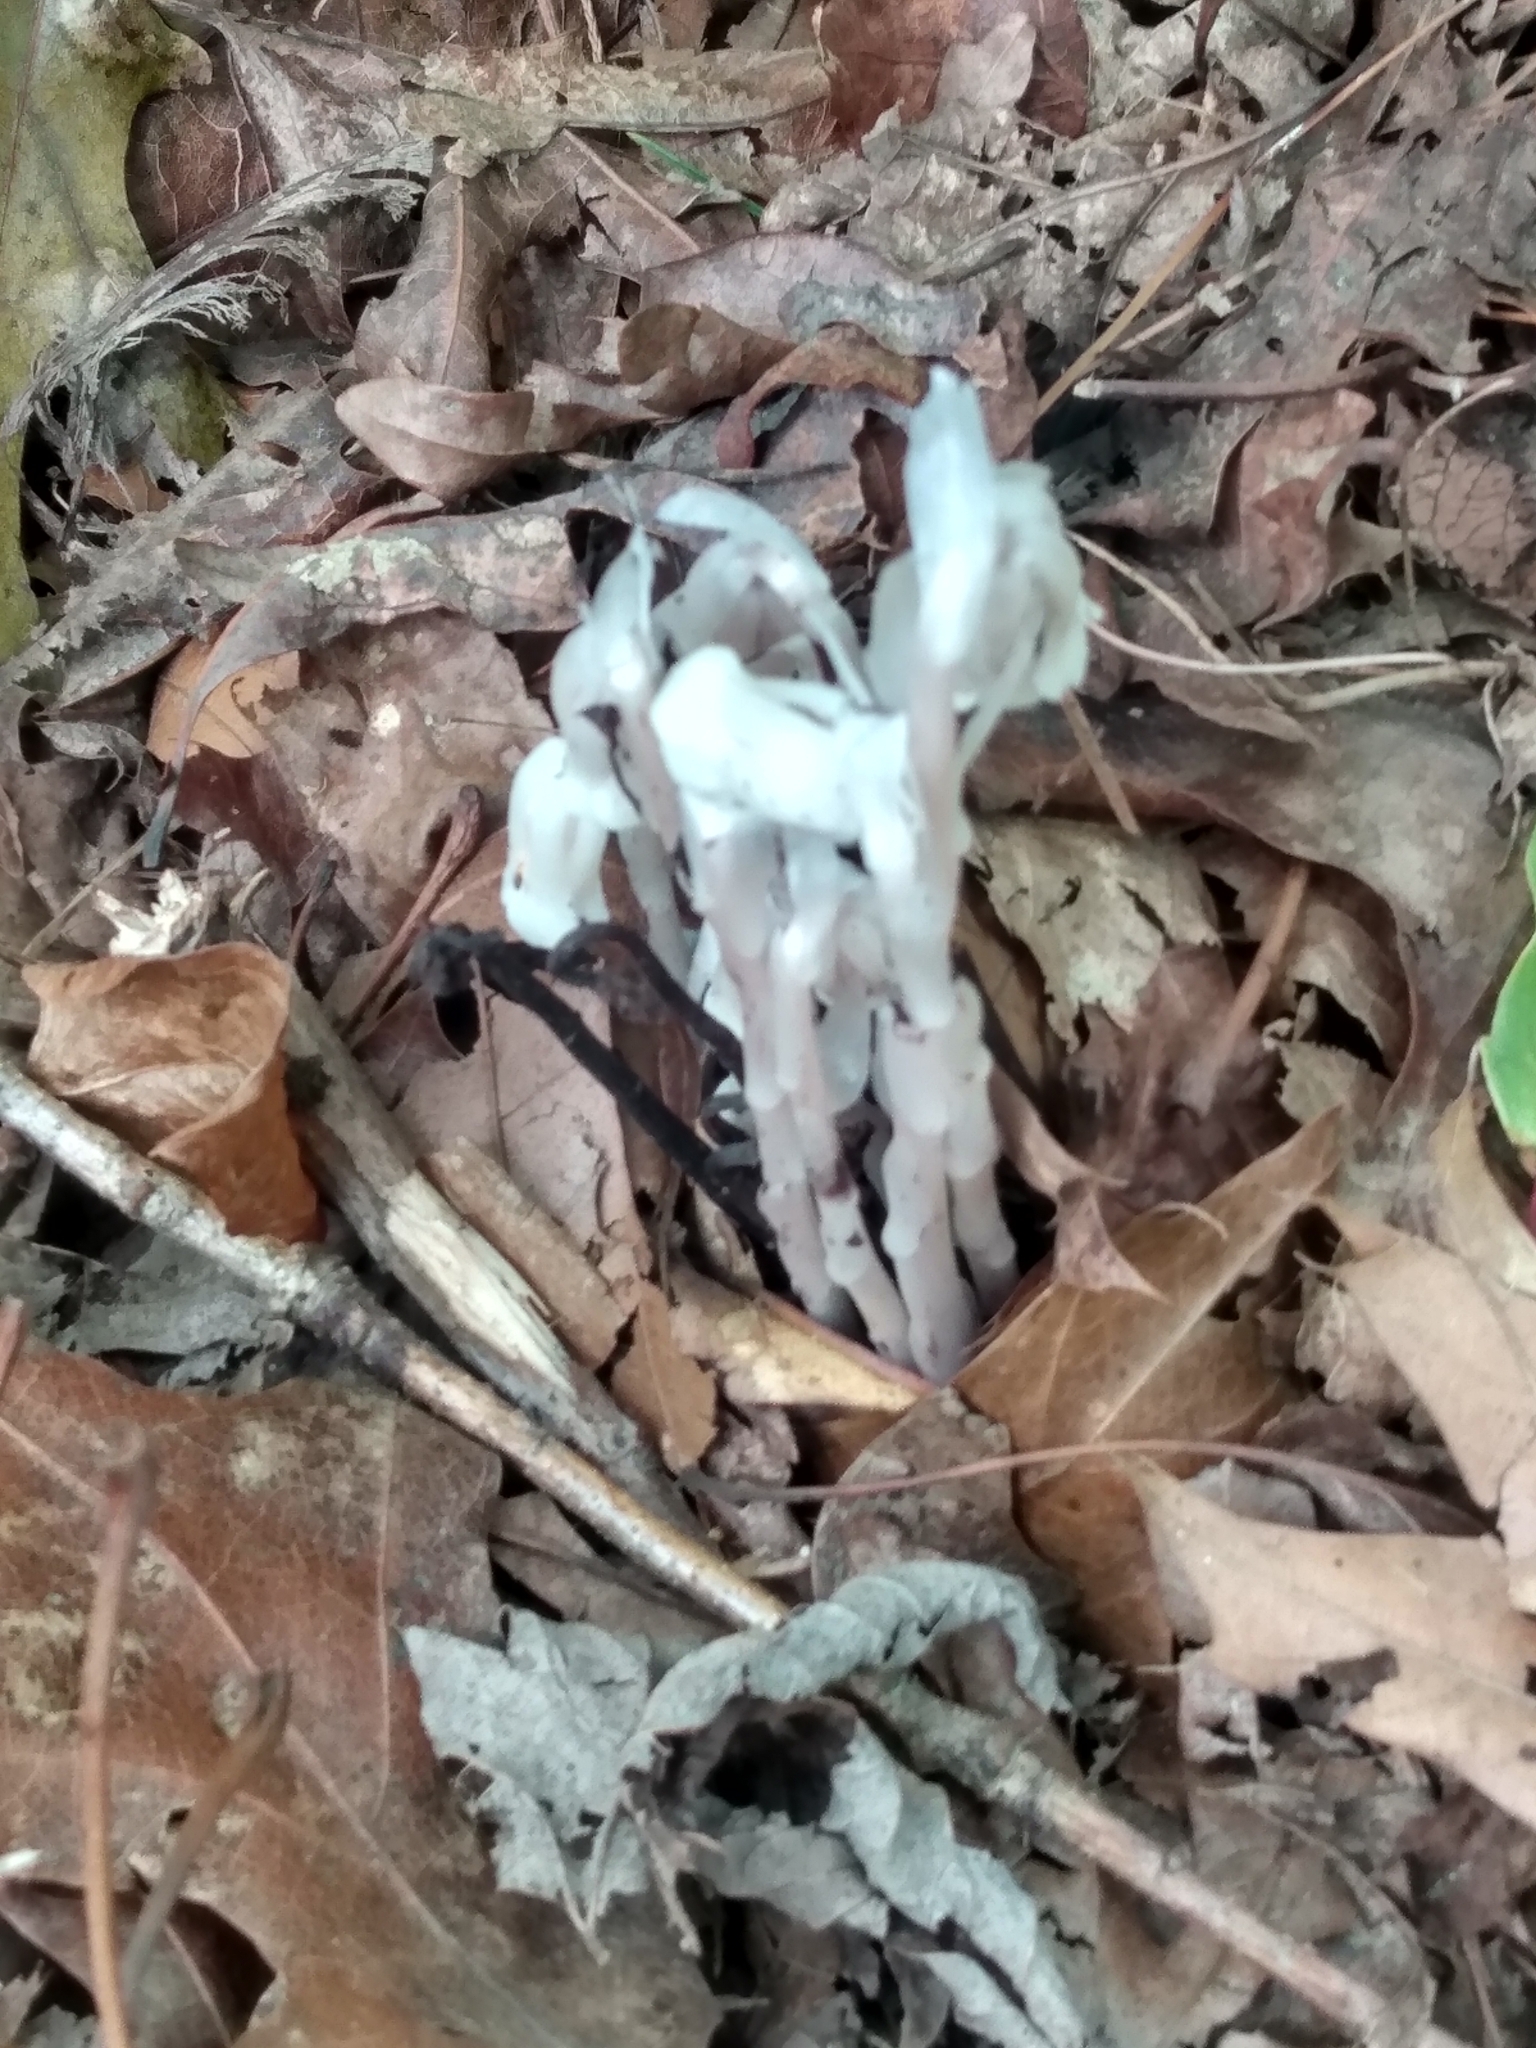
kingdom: Plantae
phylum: Tracheophyta
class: Magnoliopsida
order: Ericales
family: Ericaceae
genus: Monotropa
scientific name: Monotropa uniflora
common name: Convulsion root
